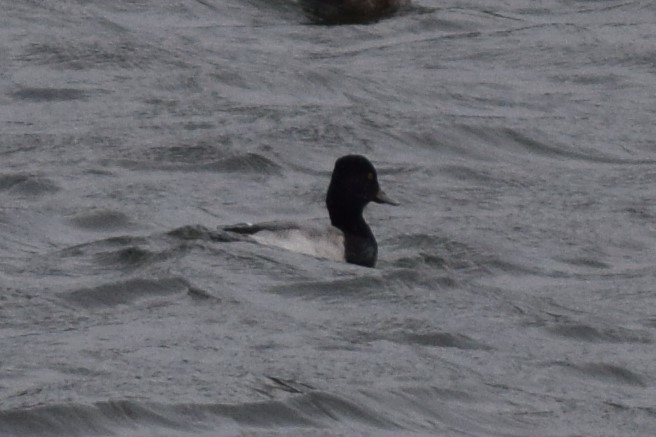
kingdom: Animalia
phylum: Chordata
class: Aves
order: Anseriformes
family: Anatidae
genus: Aythya
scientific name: Aythya affinis
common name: Lesser scaup
